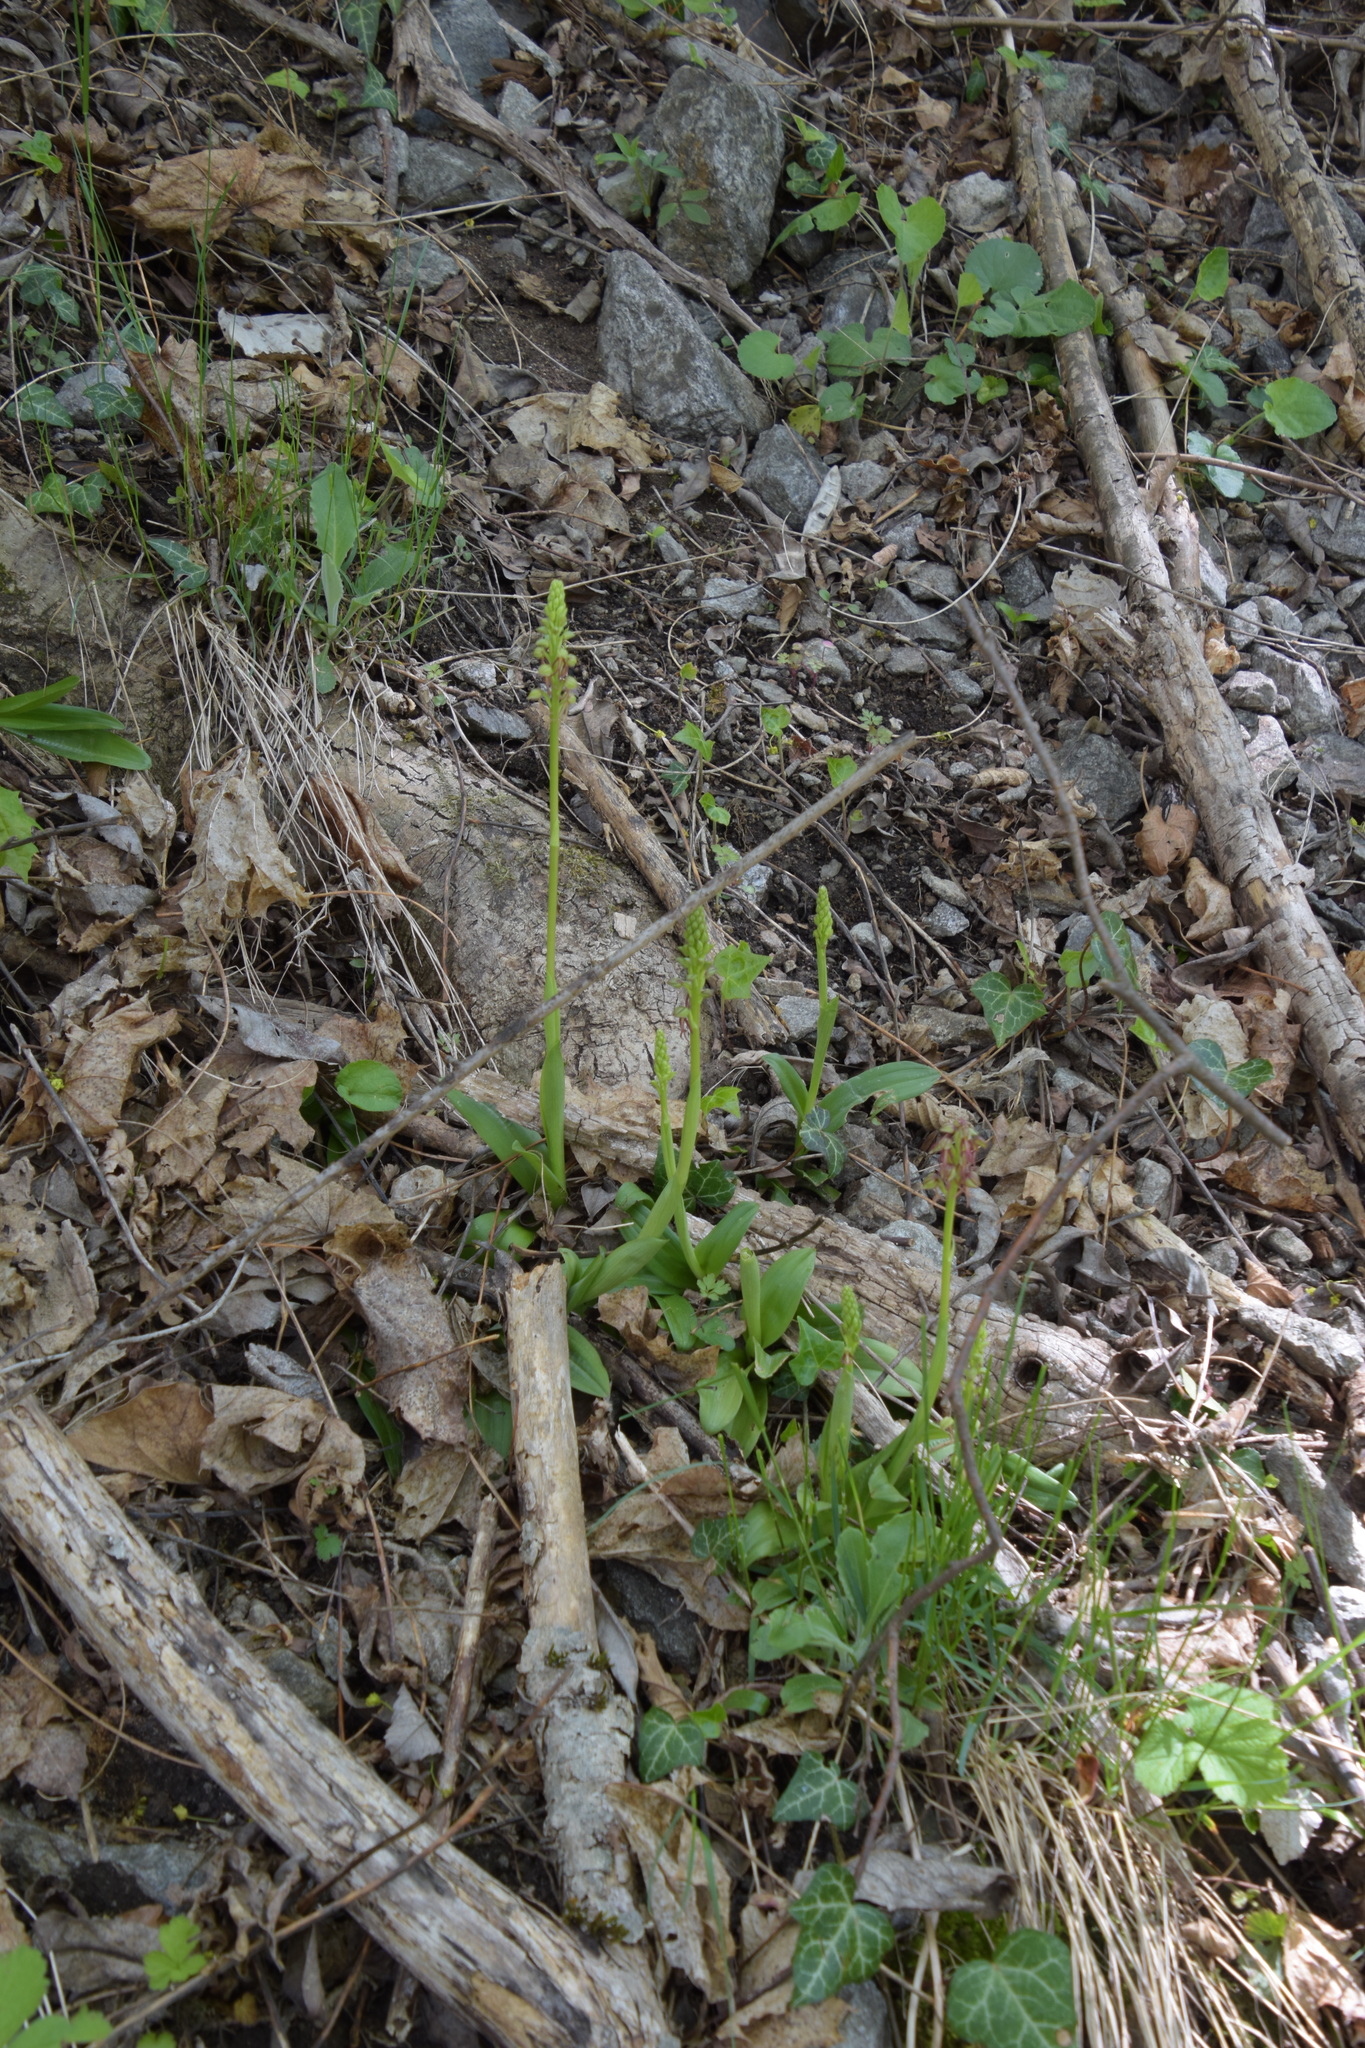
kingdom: Plantae
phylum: Tracheophyta
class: Liliopsida
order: Asparagales
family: Orchidaceae
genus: Orchis
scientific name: Orchis anthropophora
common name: Man orchid
